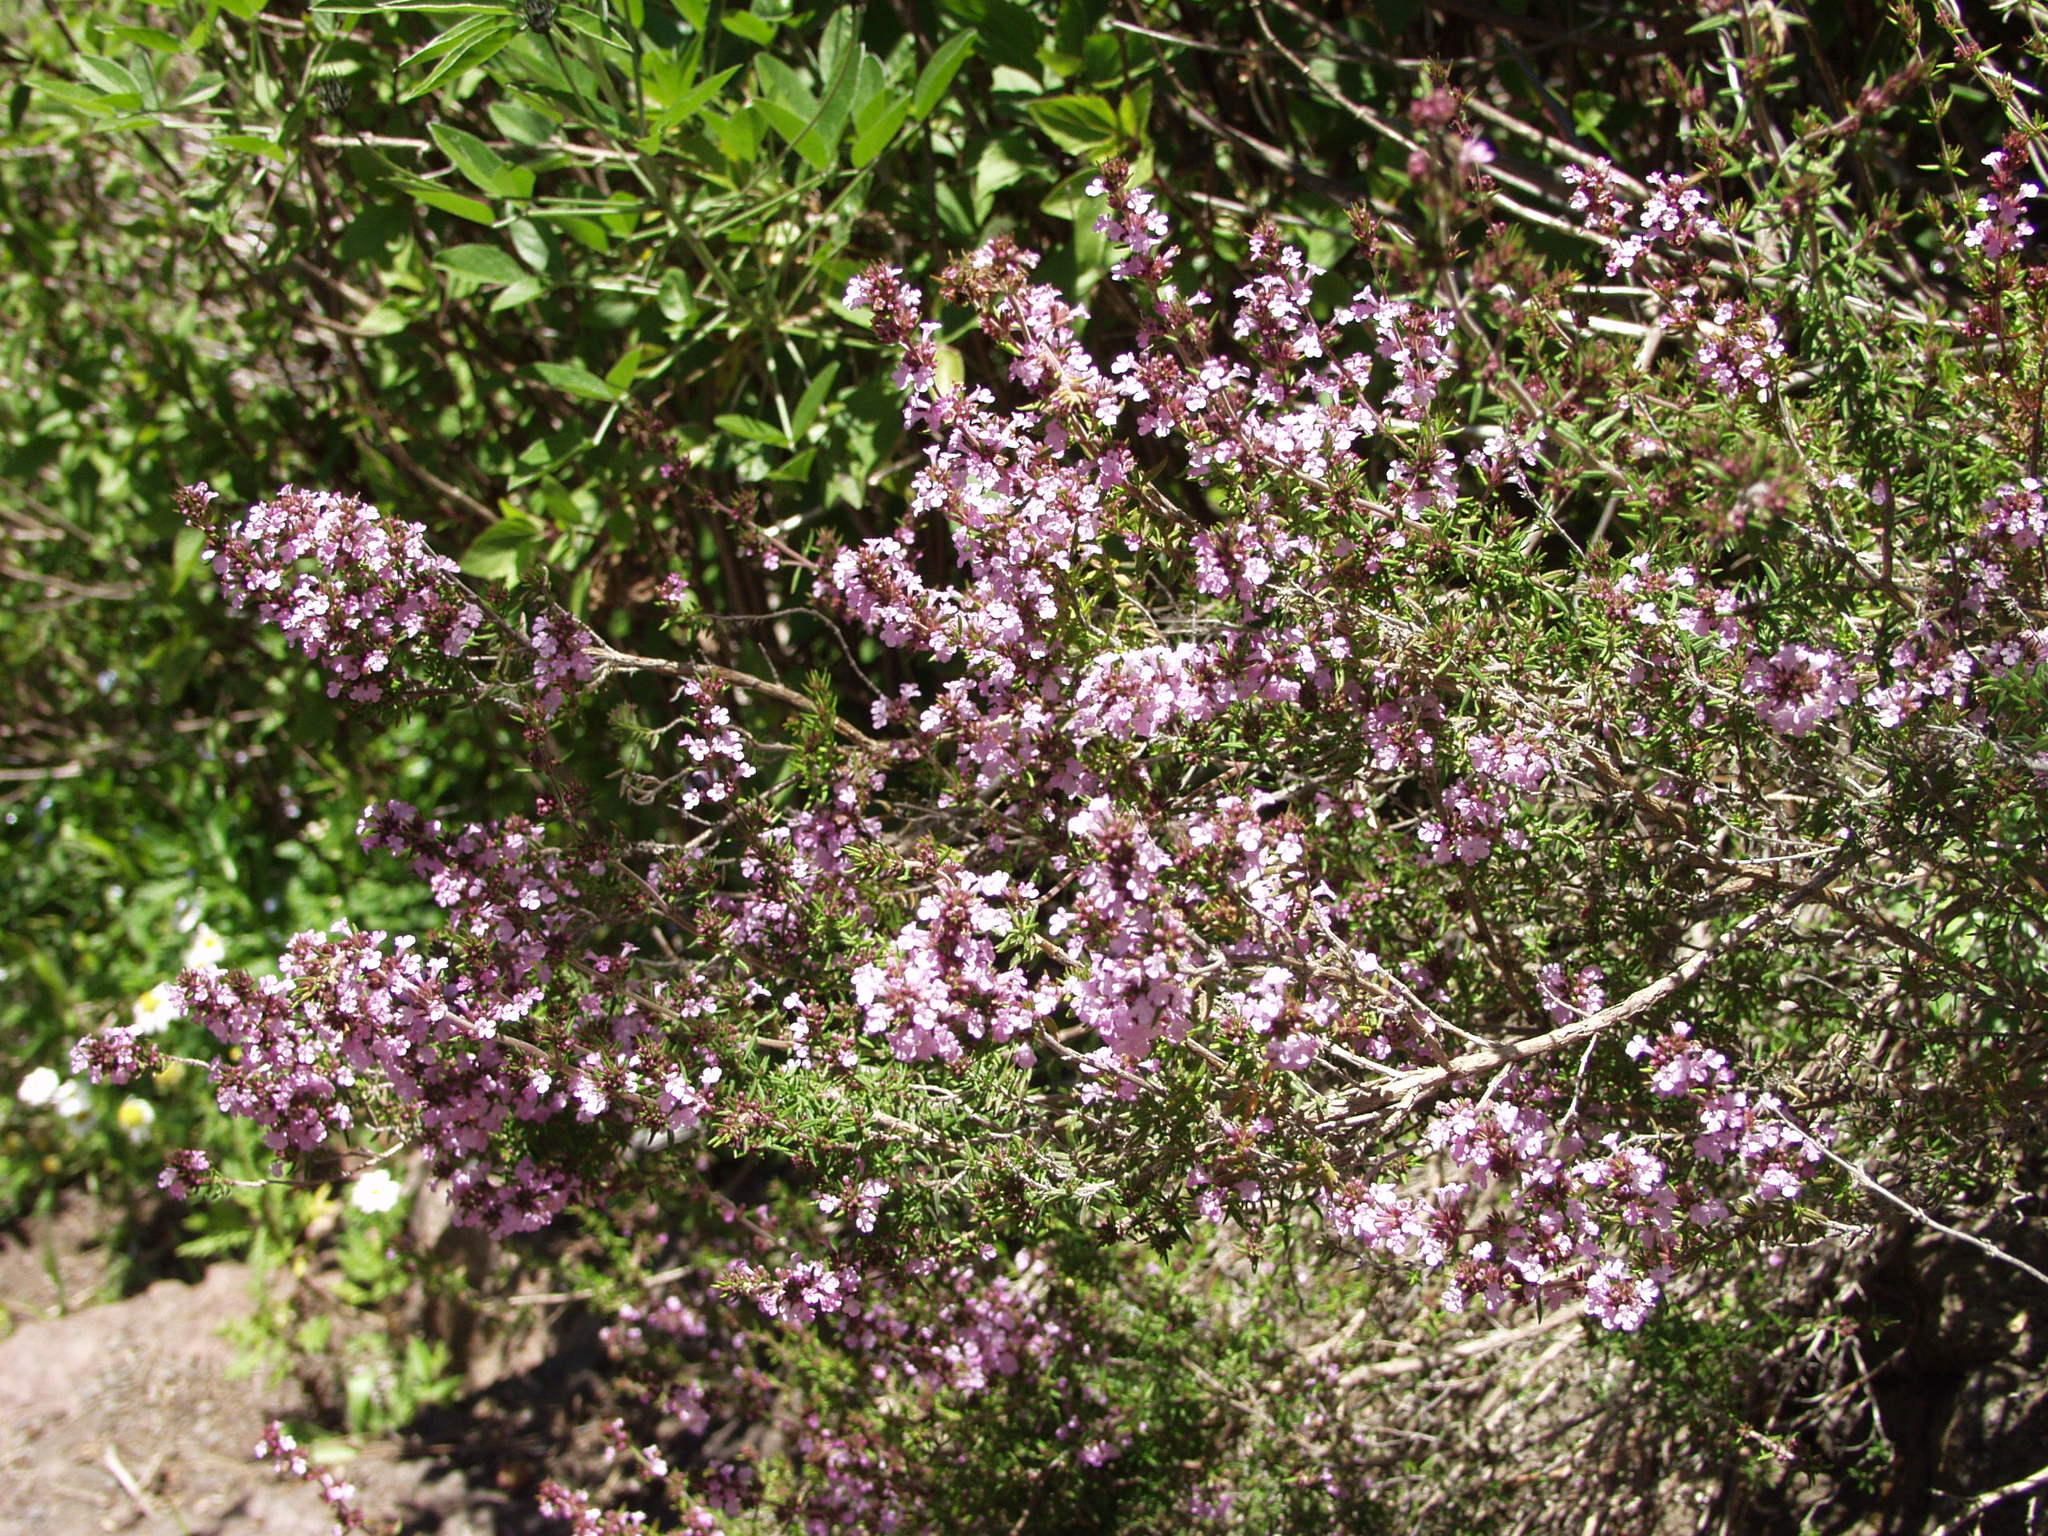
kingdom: Plantae
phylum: Tracheophyta
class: Magnoliopsida
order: Lamiales
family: Lamiaceae
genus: Micromeria
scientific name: Micromeria herpyllomorpha
